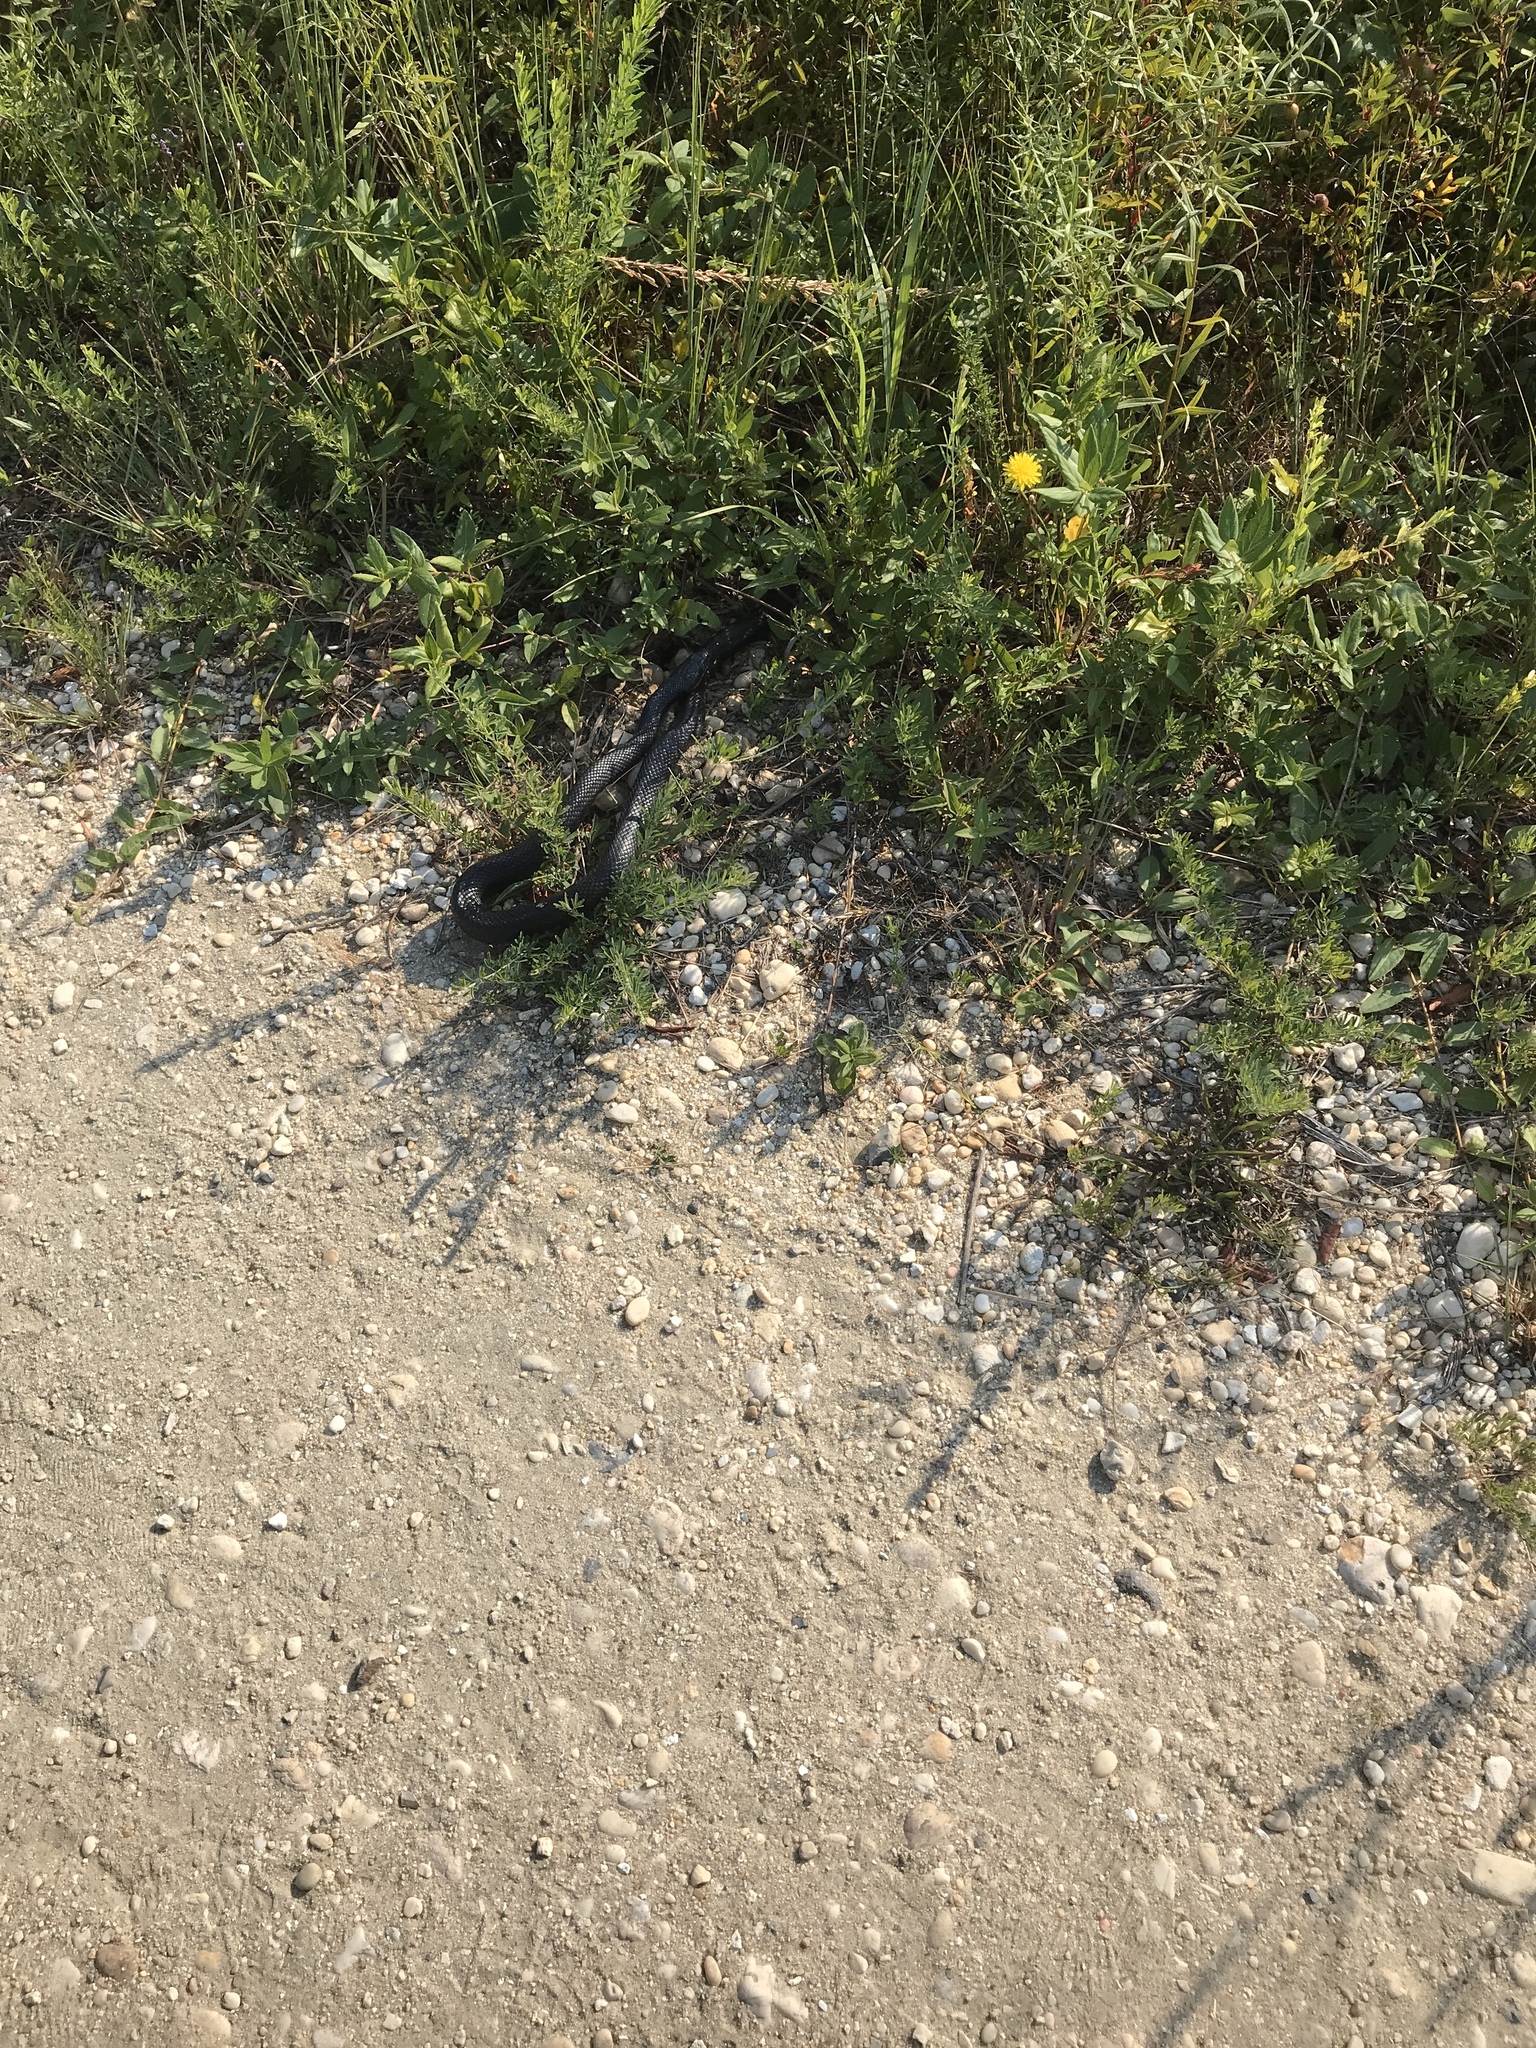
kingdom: Animalia
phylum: Chordata
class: Squamata
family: Colubridae
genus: Pantherophis
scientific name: Pantherophis alleghaniensis
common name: Eastern rat snake
